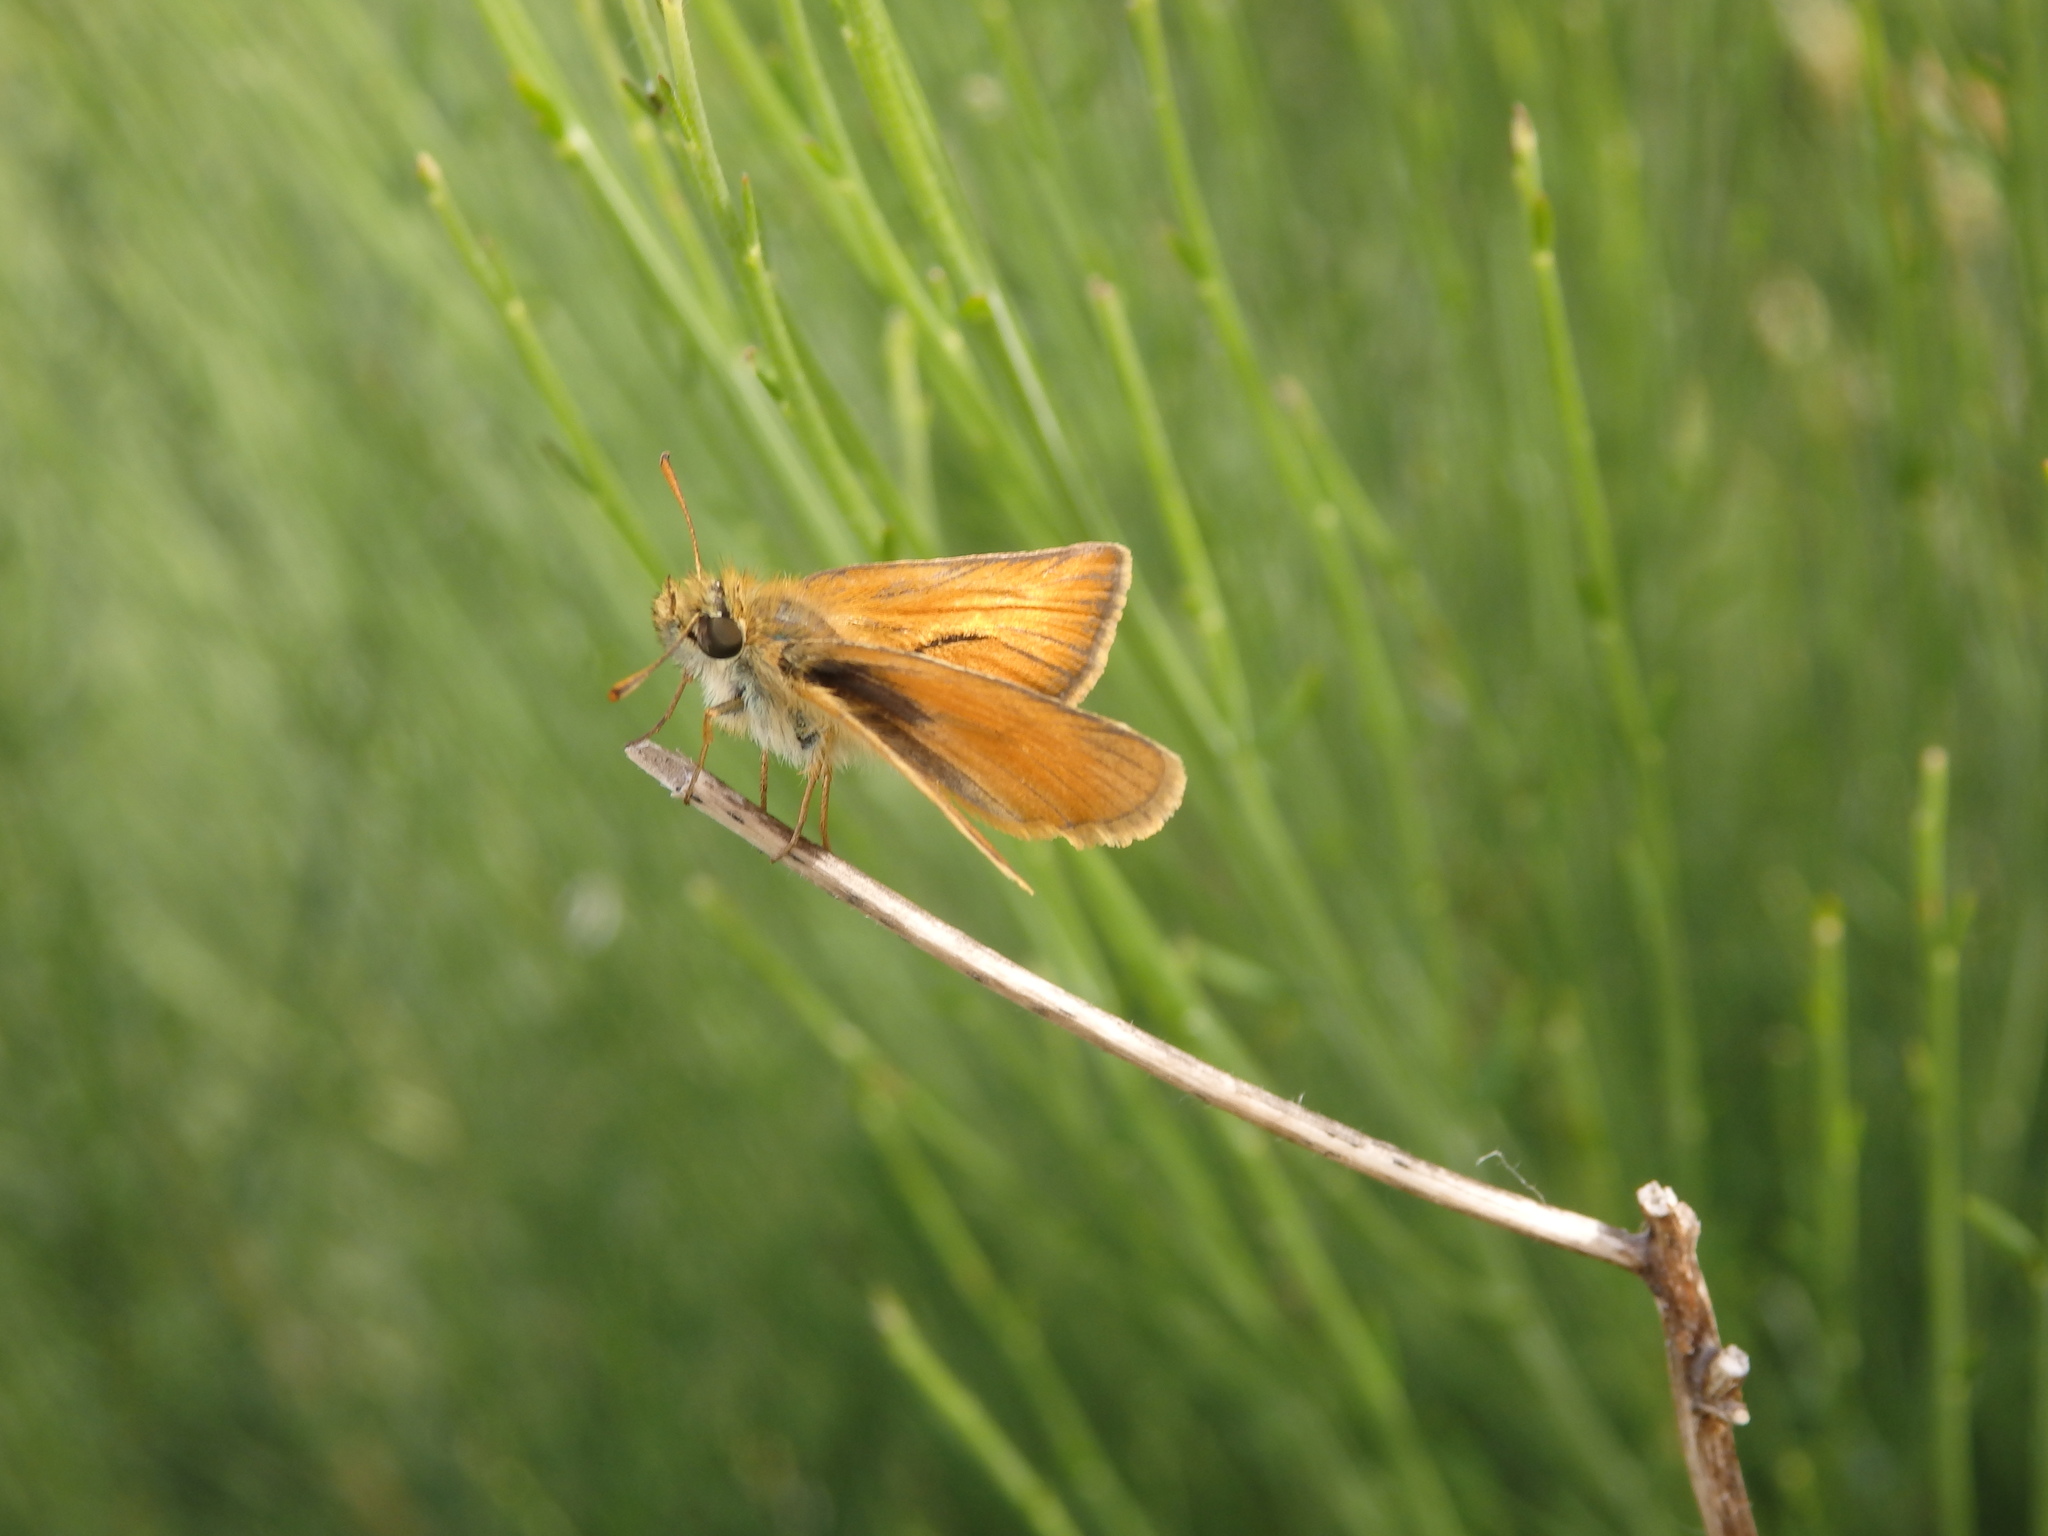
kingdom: Animalia
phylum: Arthropoda
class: Insecta
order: Lepidoptera
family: Hesperiidae
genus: Thymelicus
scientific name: Thymelicus sylvestris
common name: Small skipper
